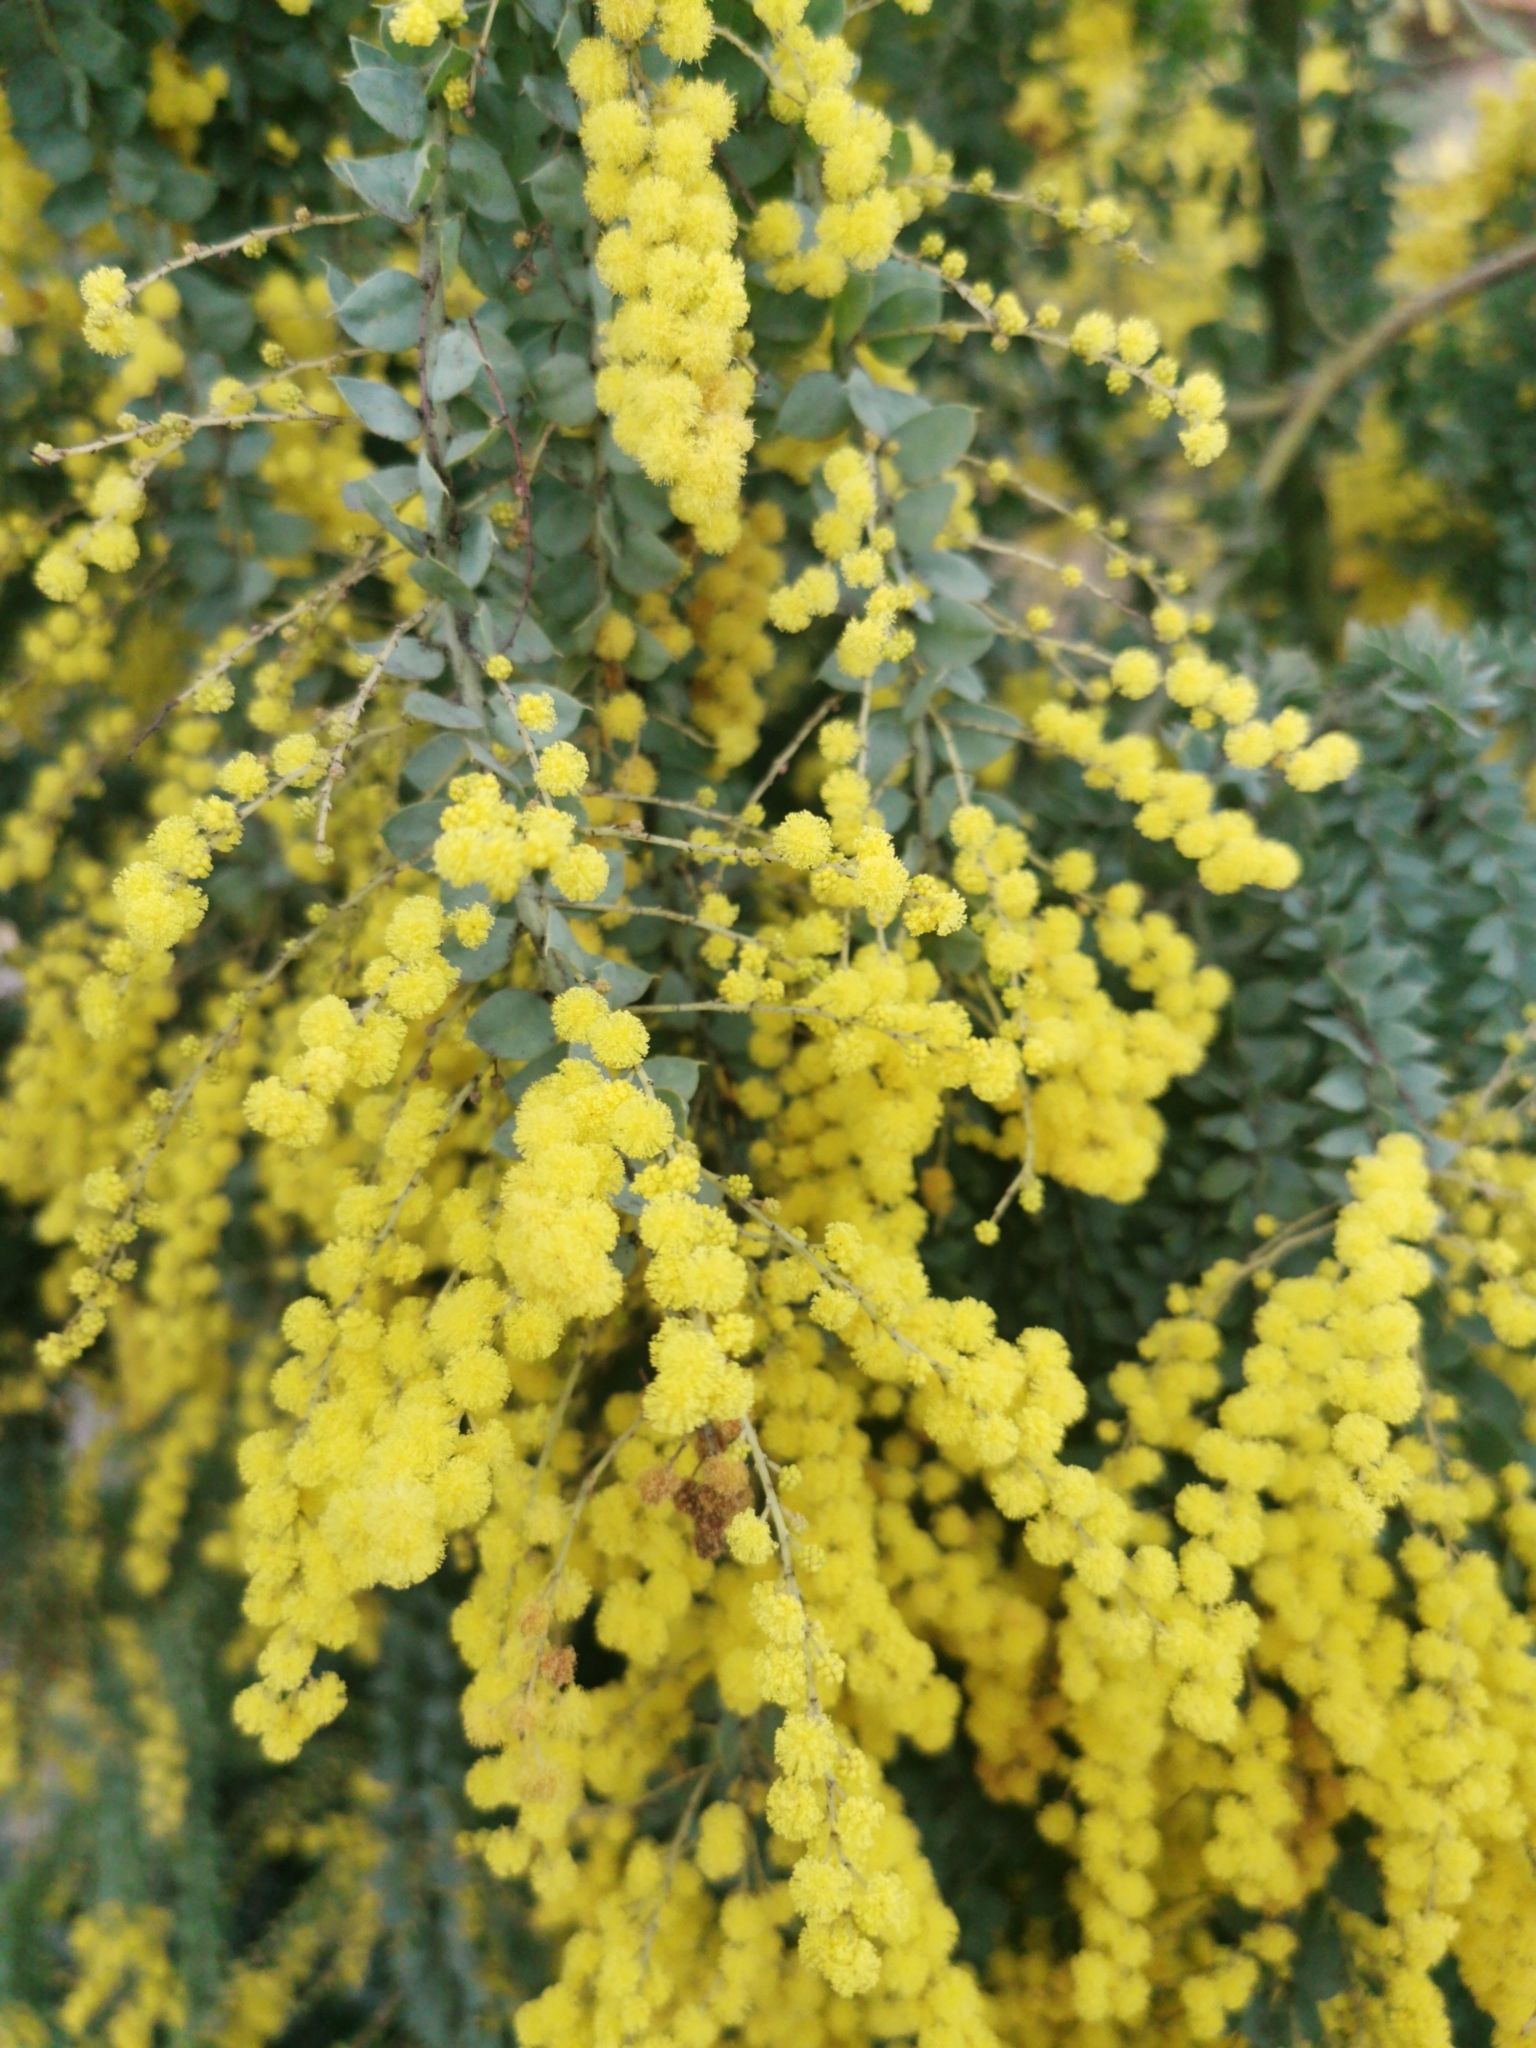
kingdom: Plantae
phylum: Tracheophyta
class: Magnoliopsida
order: Fabales
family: Fabaceae
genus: Acacia
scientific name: Acacia pravissima
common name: Tumut wattle
